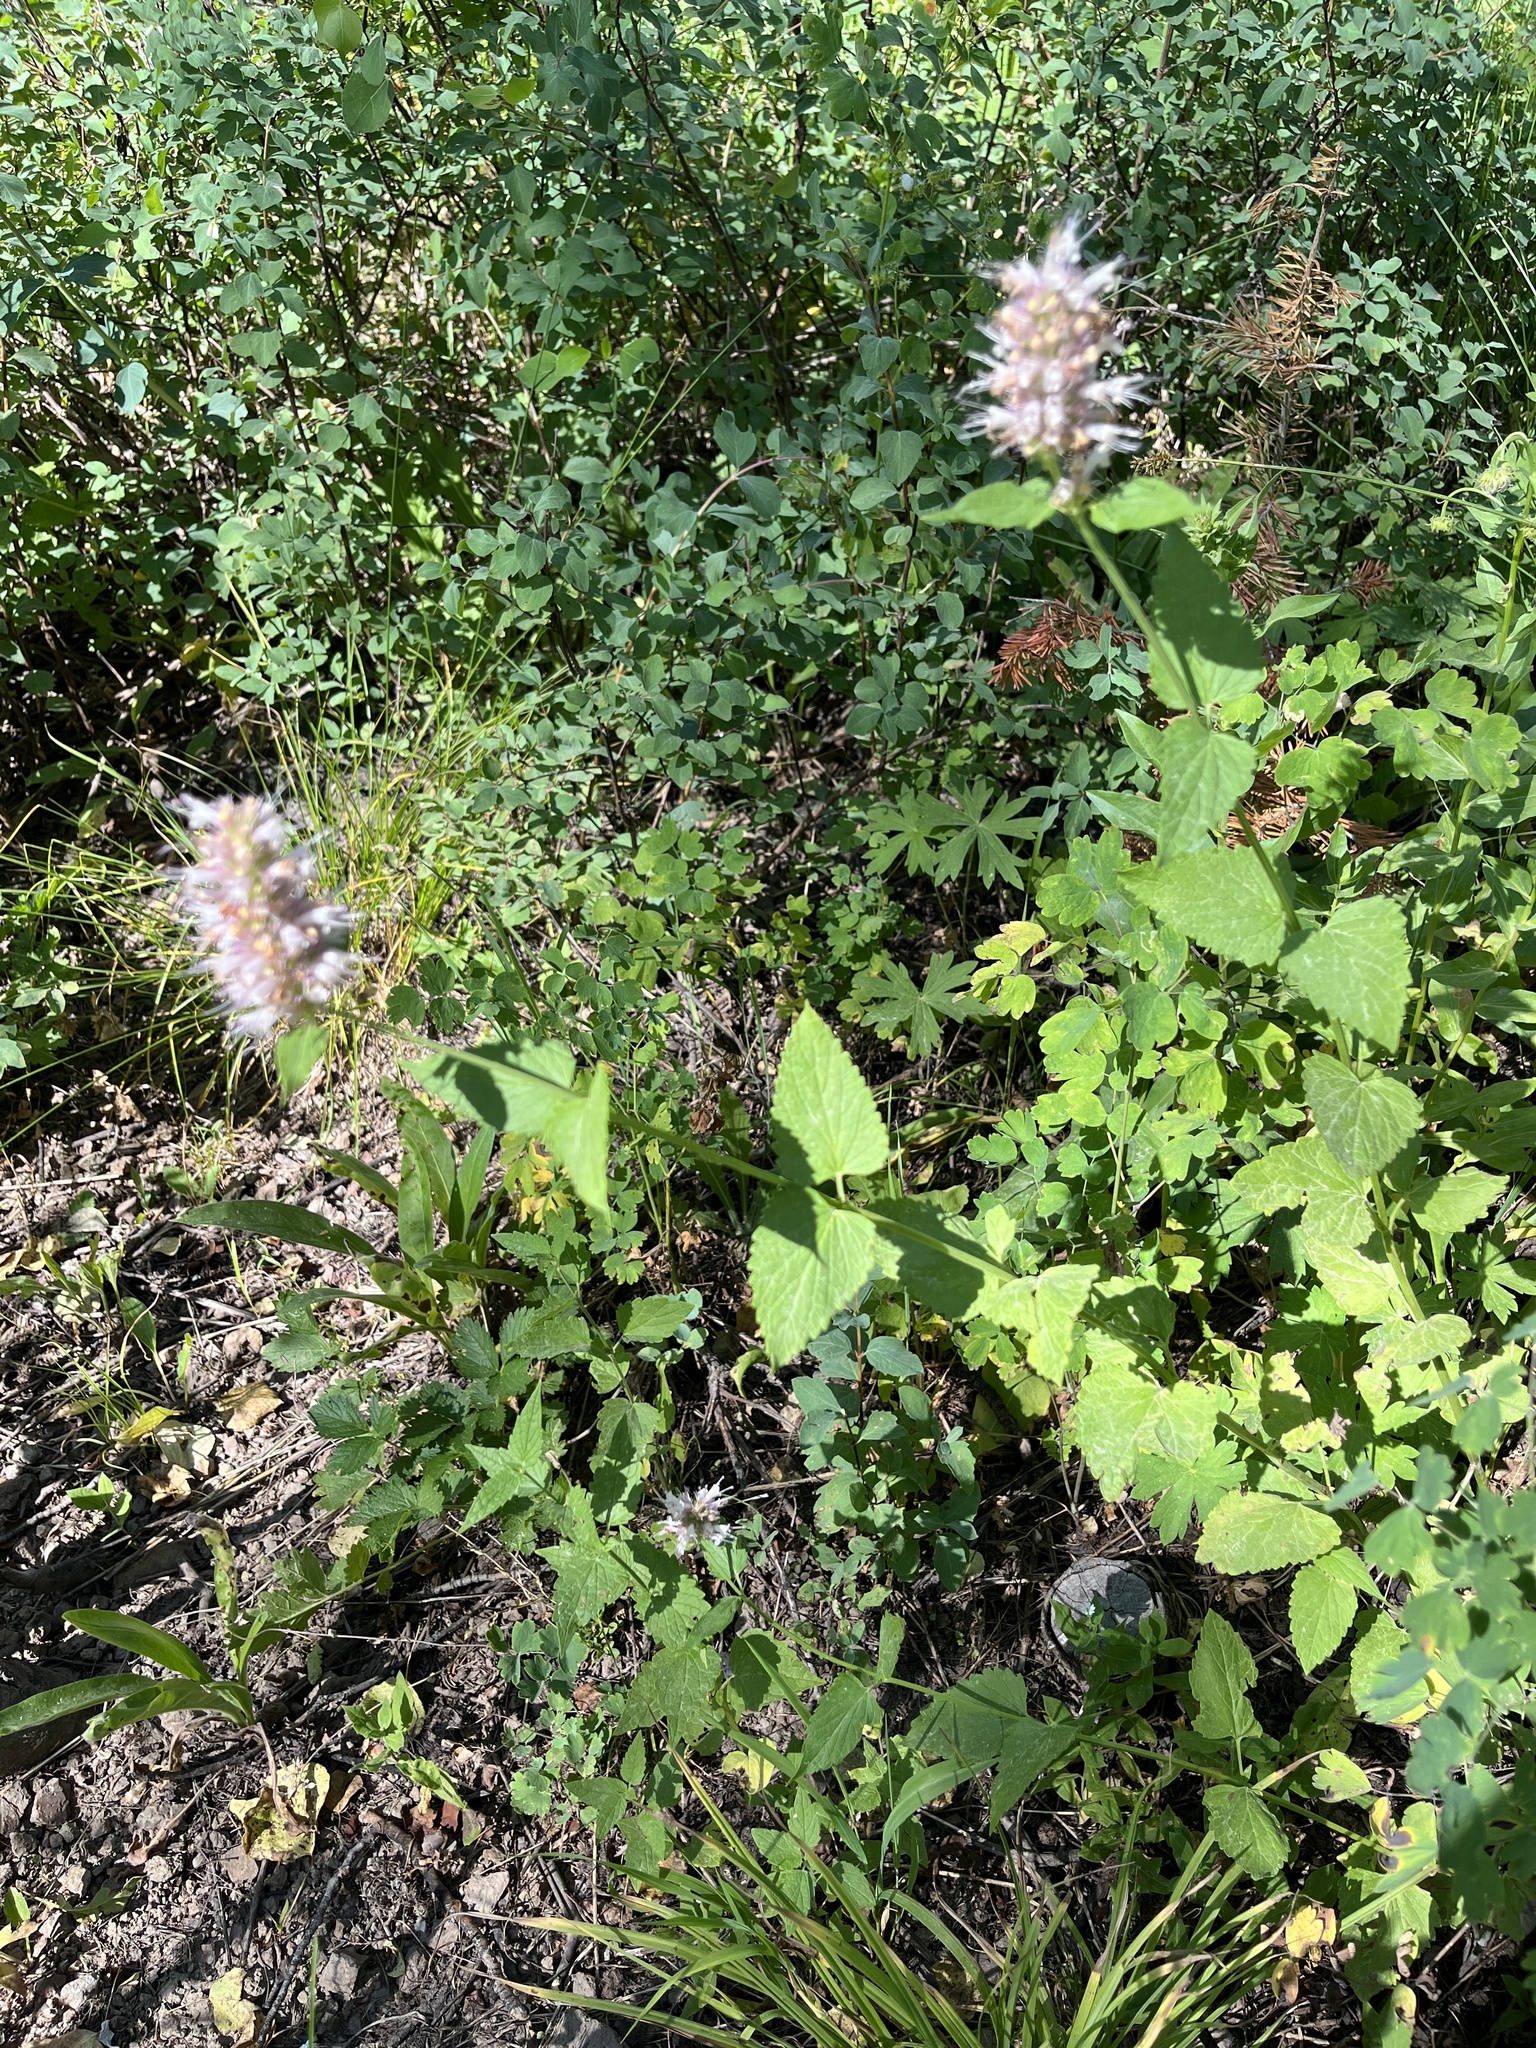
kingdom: Plantae
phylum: Tracheophyta
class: Magnoliopsida
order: Lamiales
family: Lamiaceae
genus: Agastache
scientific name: Agastache urticifolia
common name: Horsemint giant hyssop
